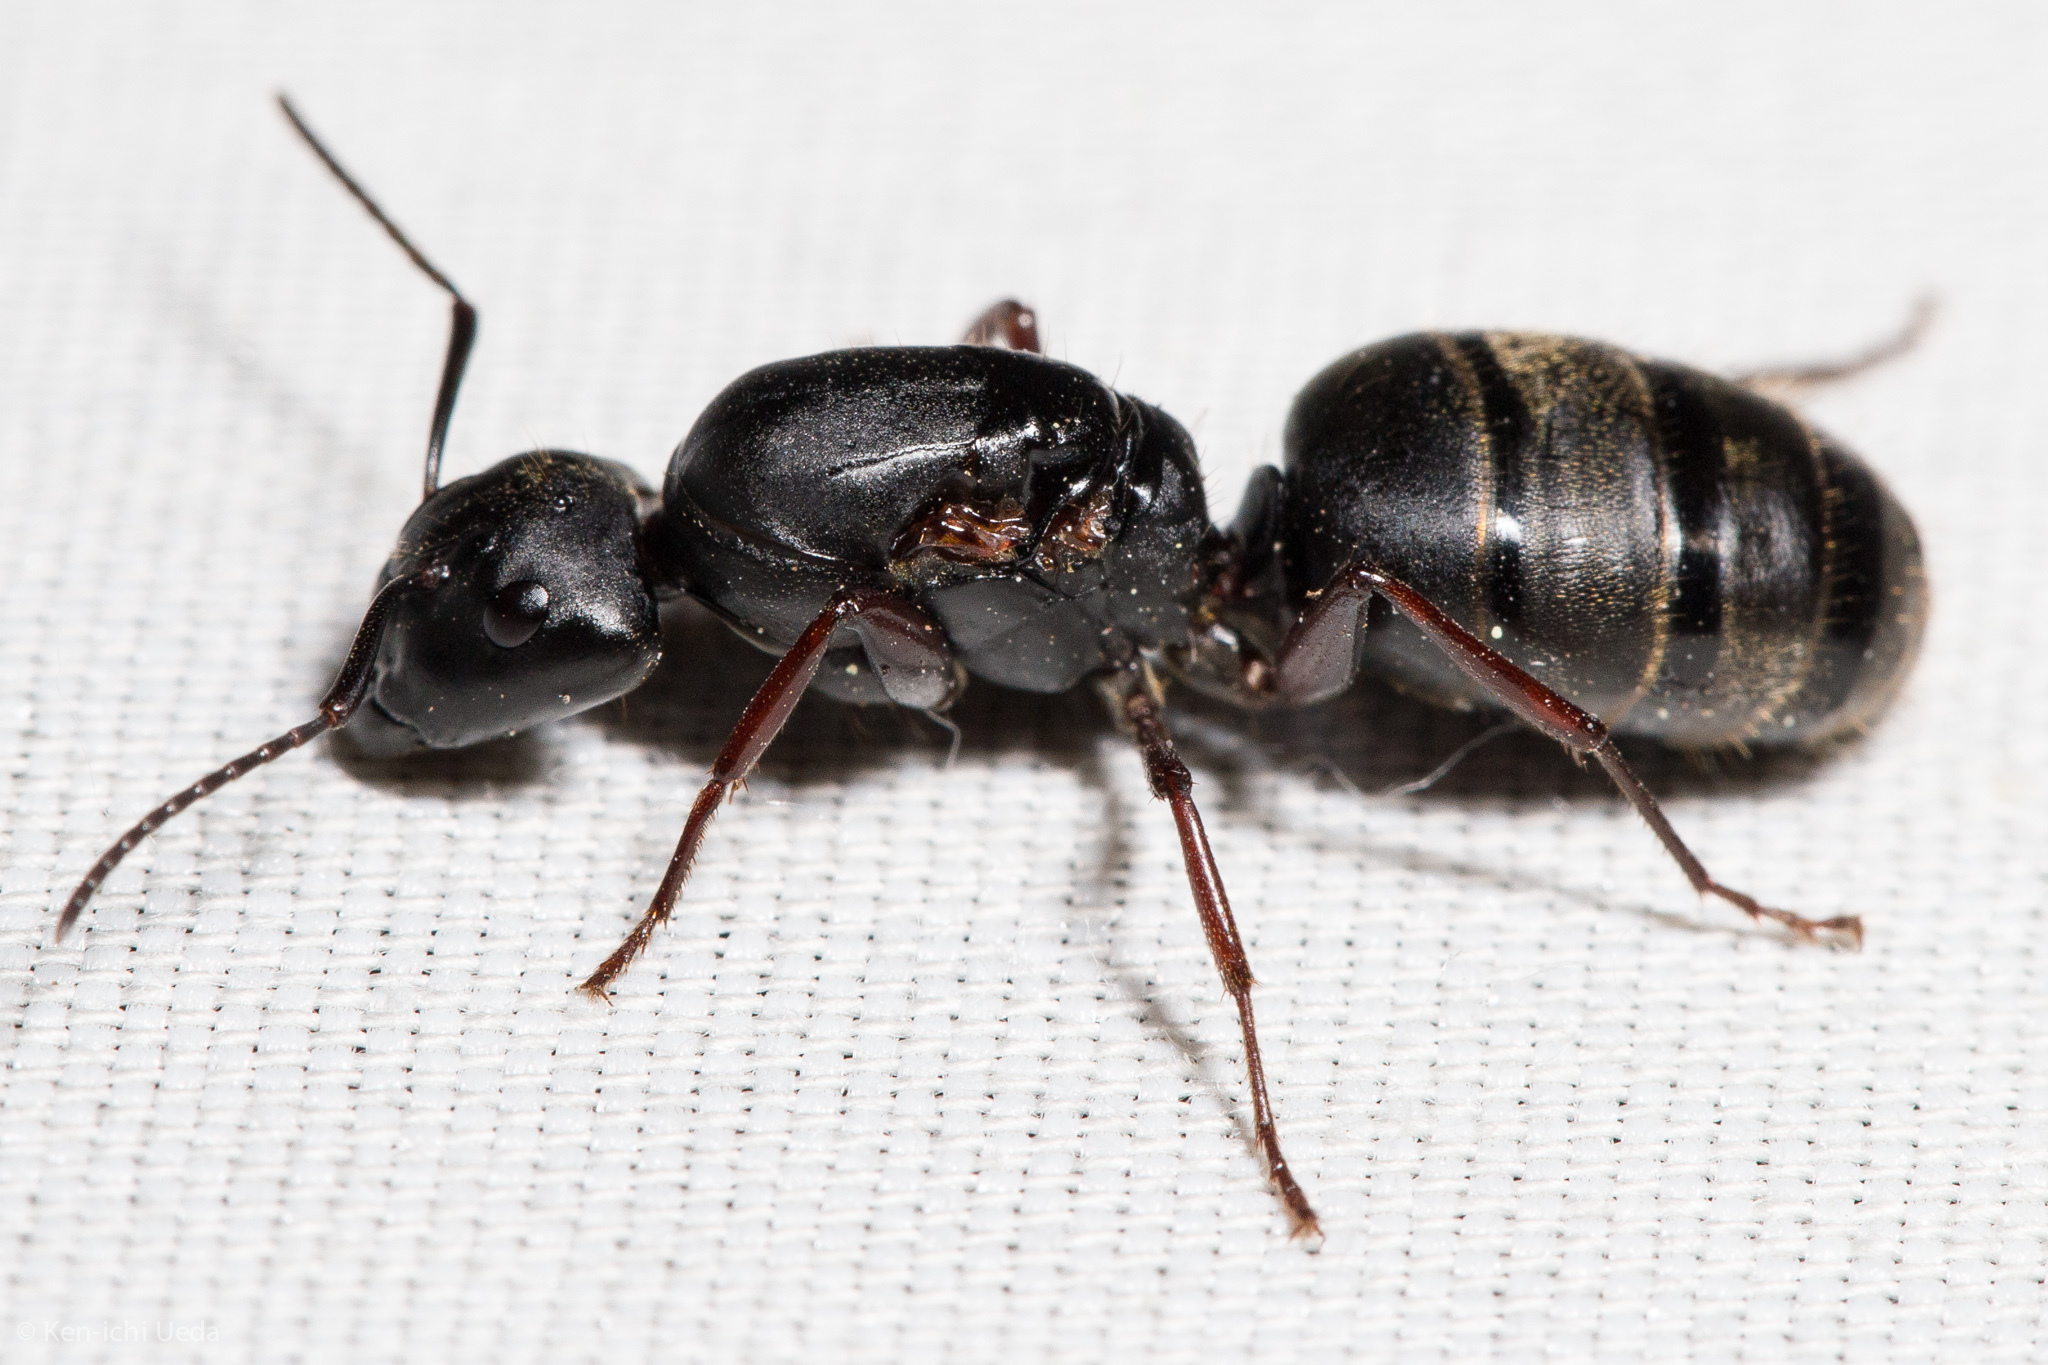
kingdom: Animalia
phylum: Arthropoda
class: Insecta
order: Hymenoptera
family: Formicidae
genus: Camponotus
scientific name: Camponotus modoc
